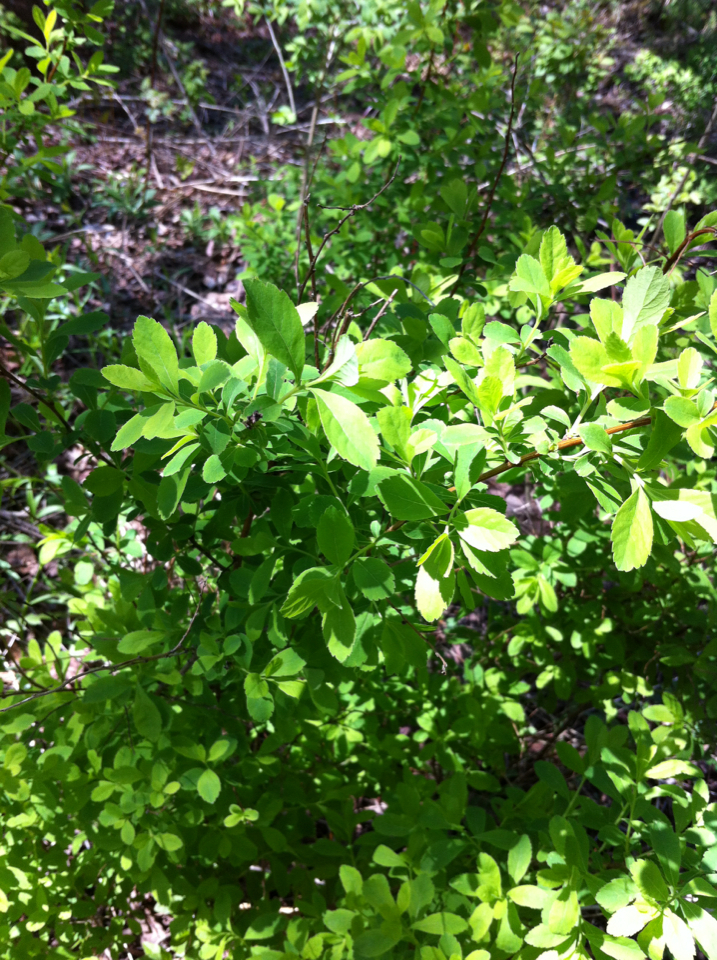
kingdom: Plantae
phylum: Tracheophyta
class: Magnoliopsida
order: Rosales
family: Rosaceae
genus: Spiraea
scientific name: Spiraea alba
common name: Pale bridewort
